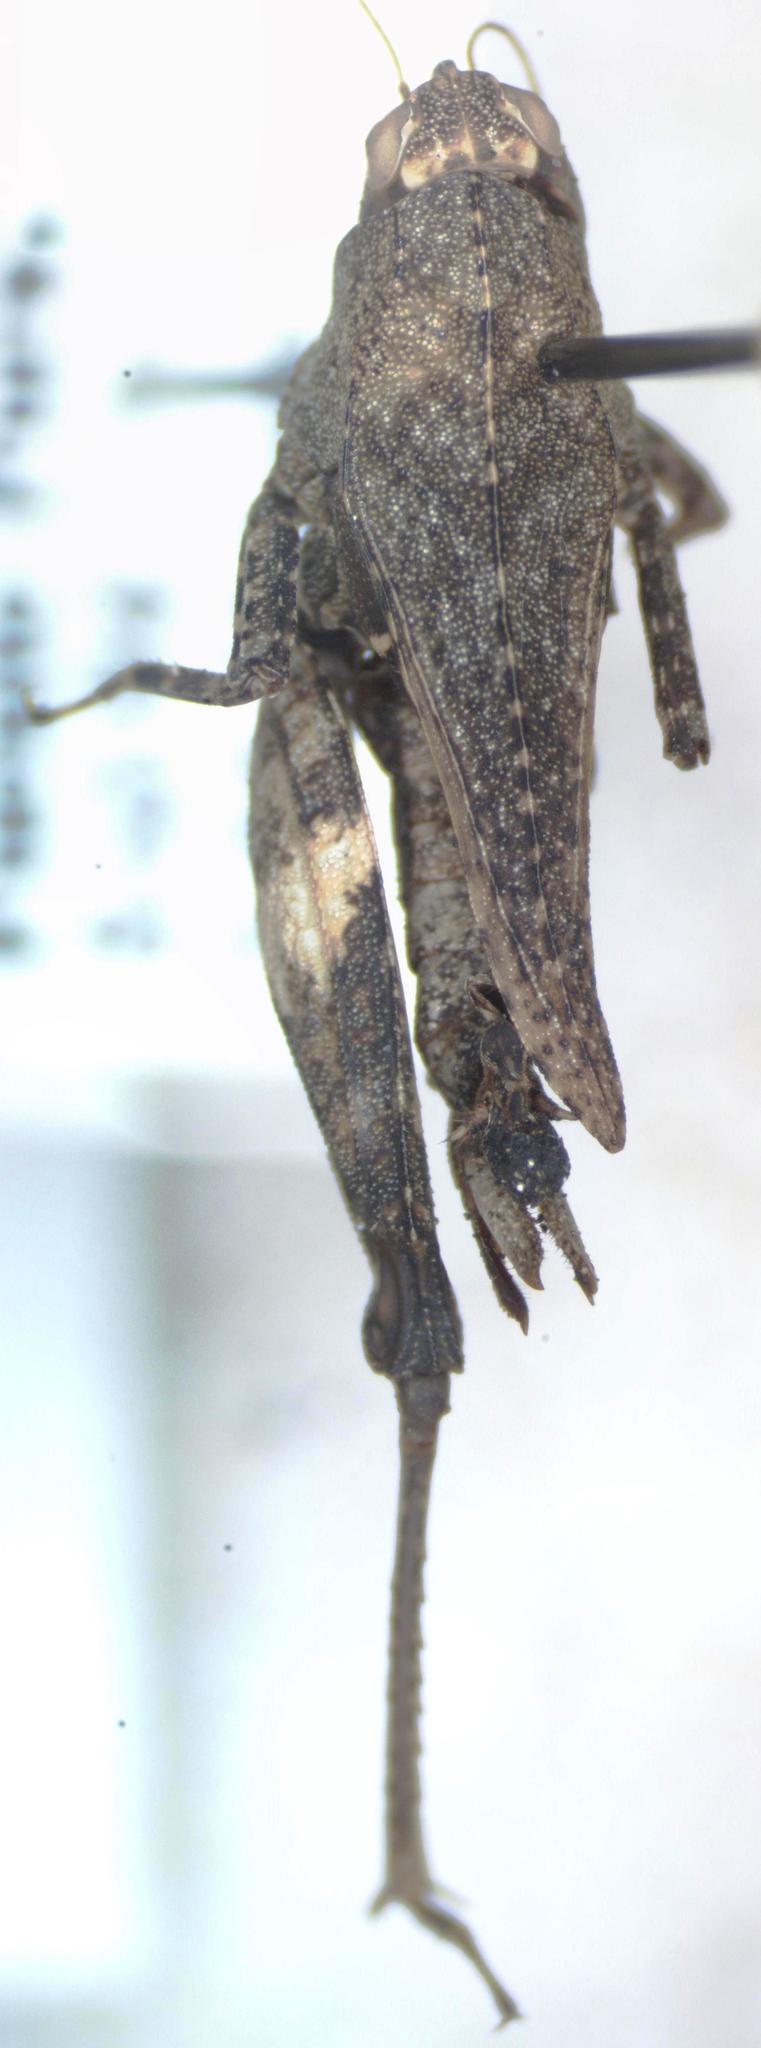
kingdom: Animalia
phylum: Arthropoda
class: Insecta
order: Orthoptera
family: Tetrigidae
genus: Tettigidea
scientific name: Tettigidea
